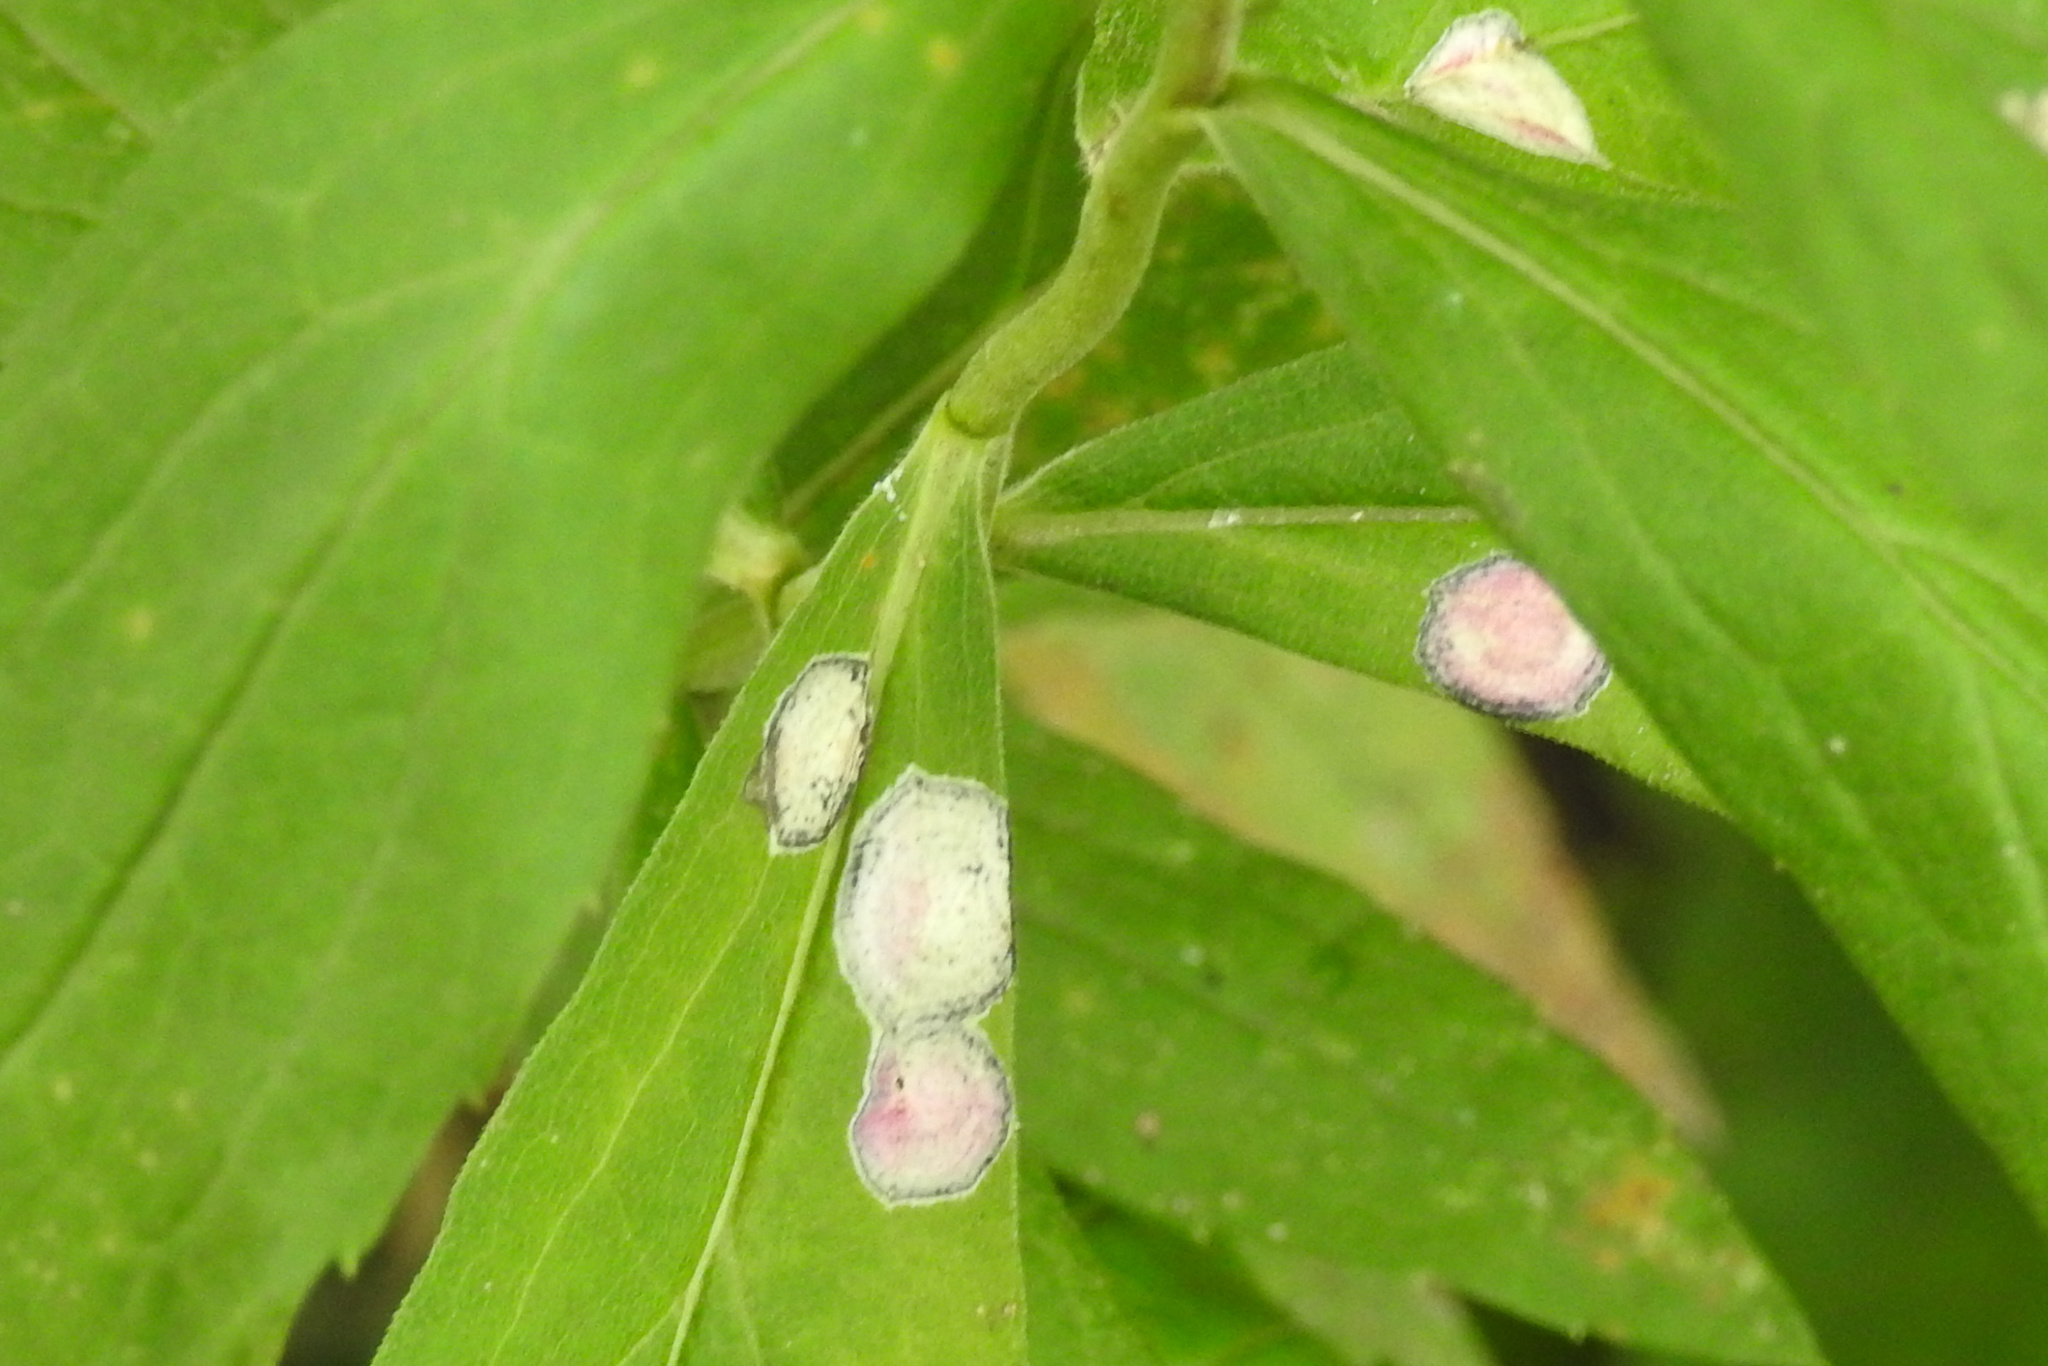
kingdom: Animalia
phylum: Arthropoda
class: Insecta
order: Diptera
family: Cecidomyiidae
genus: Asteromyia
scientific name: Asteromyia carbonifera
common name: Carbonifera goldenrod gall midge
